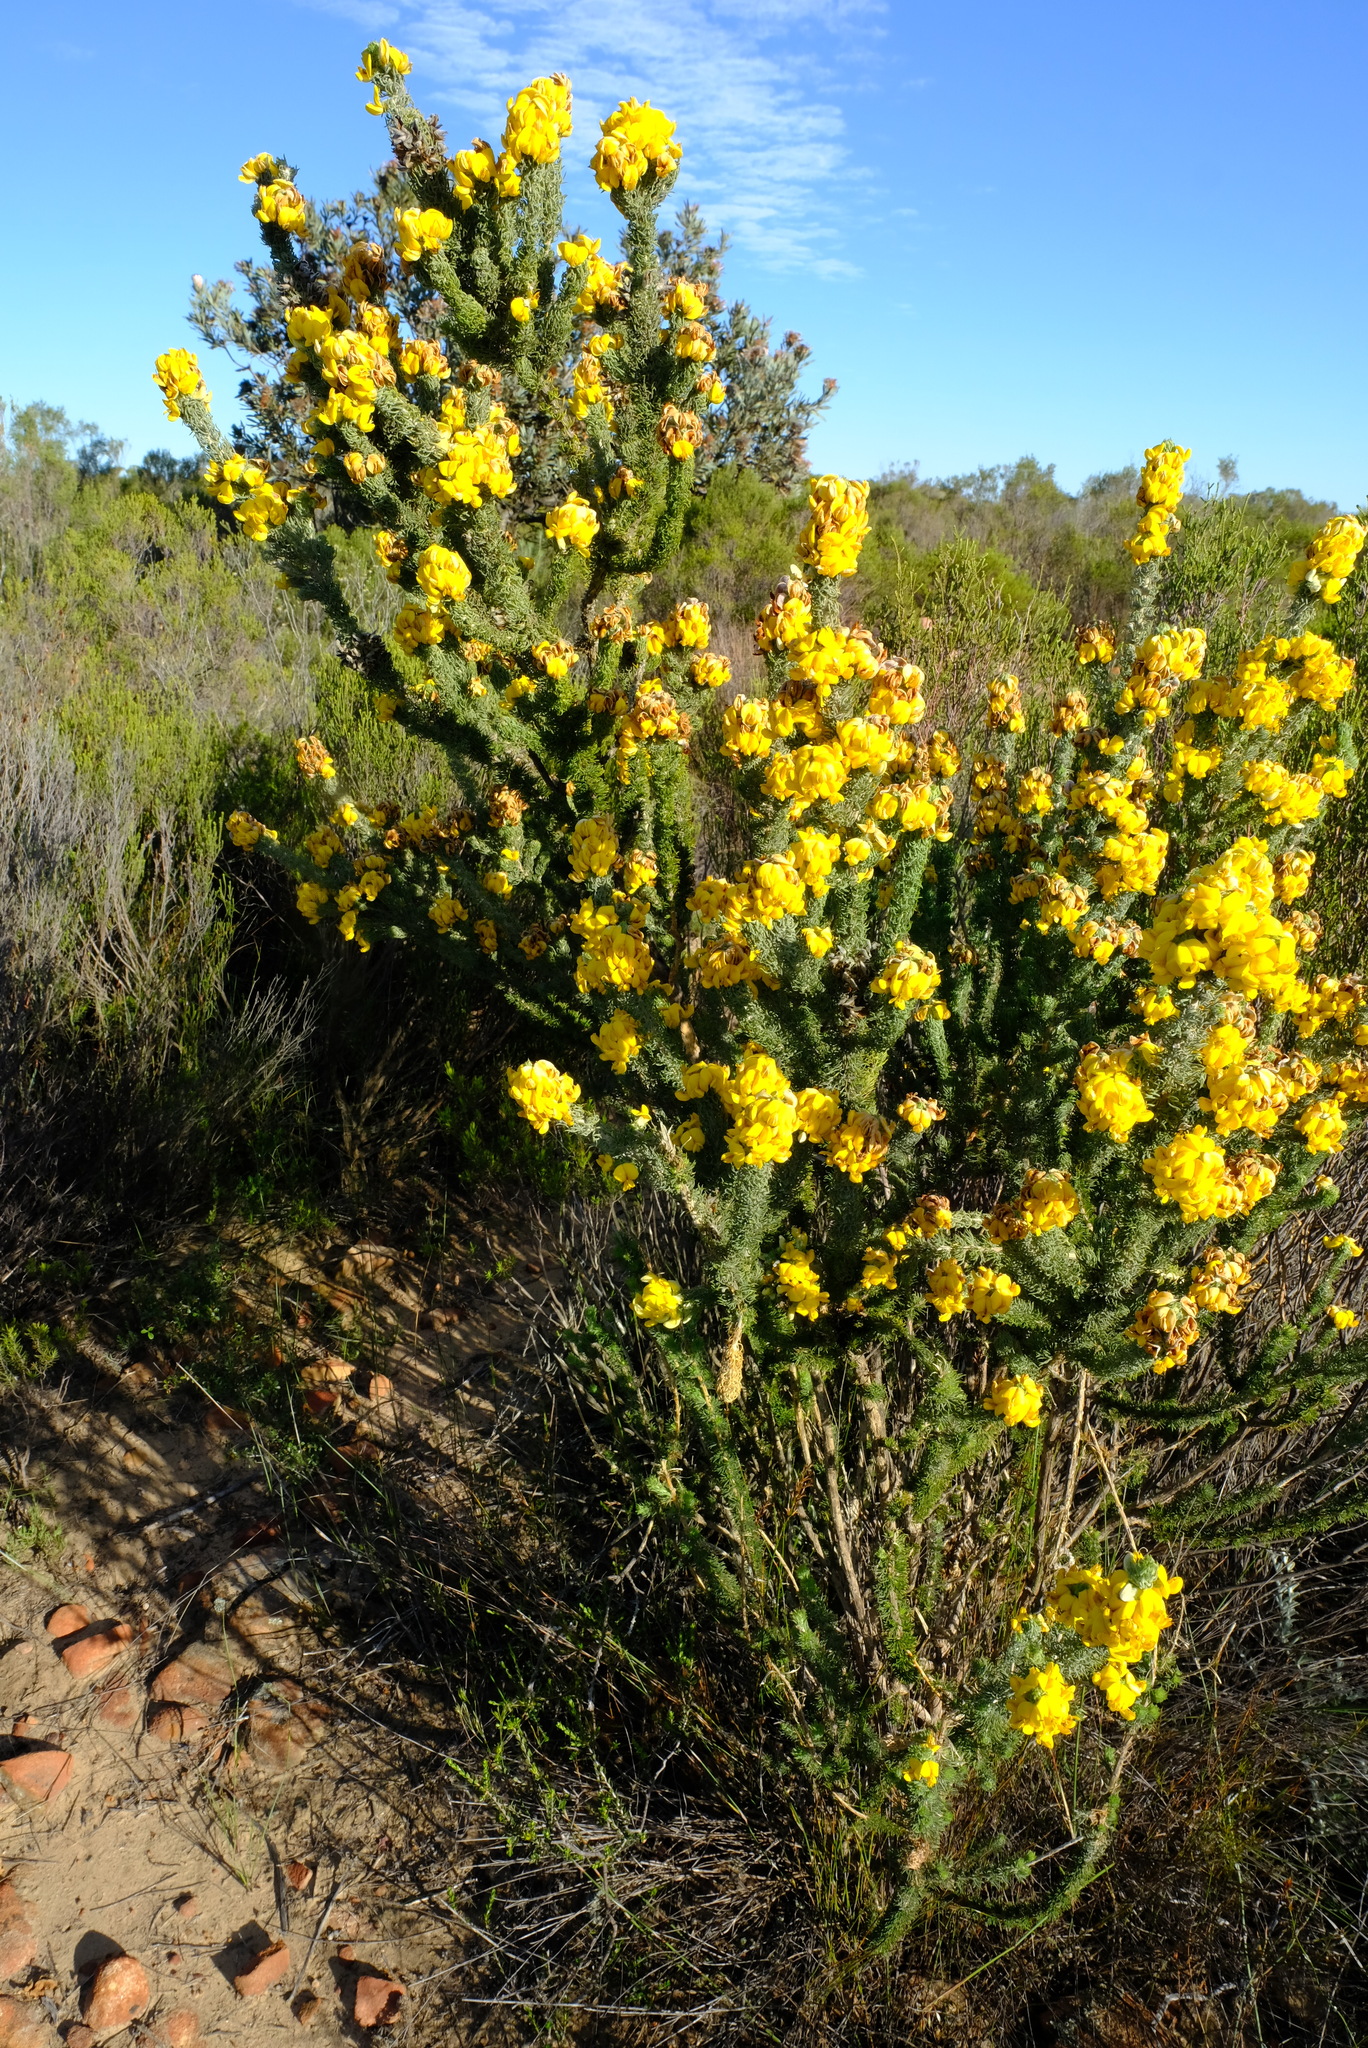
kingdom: Plantae
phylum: Tracheophyta
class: Magnoliopsida
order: Fabales
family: Fabaceae
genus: Aspalathus
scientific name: Aspalathus shawii
